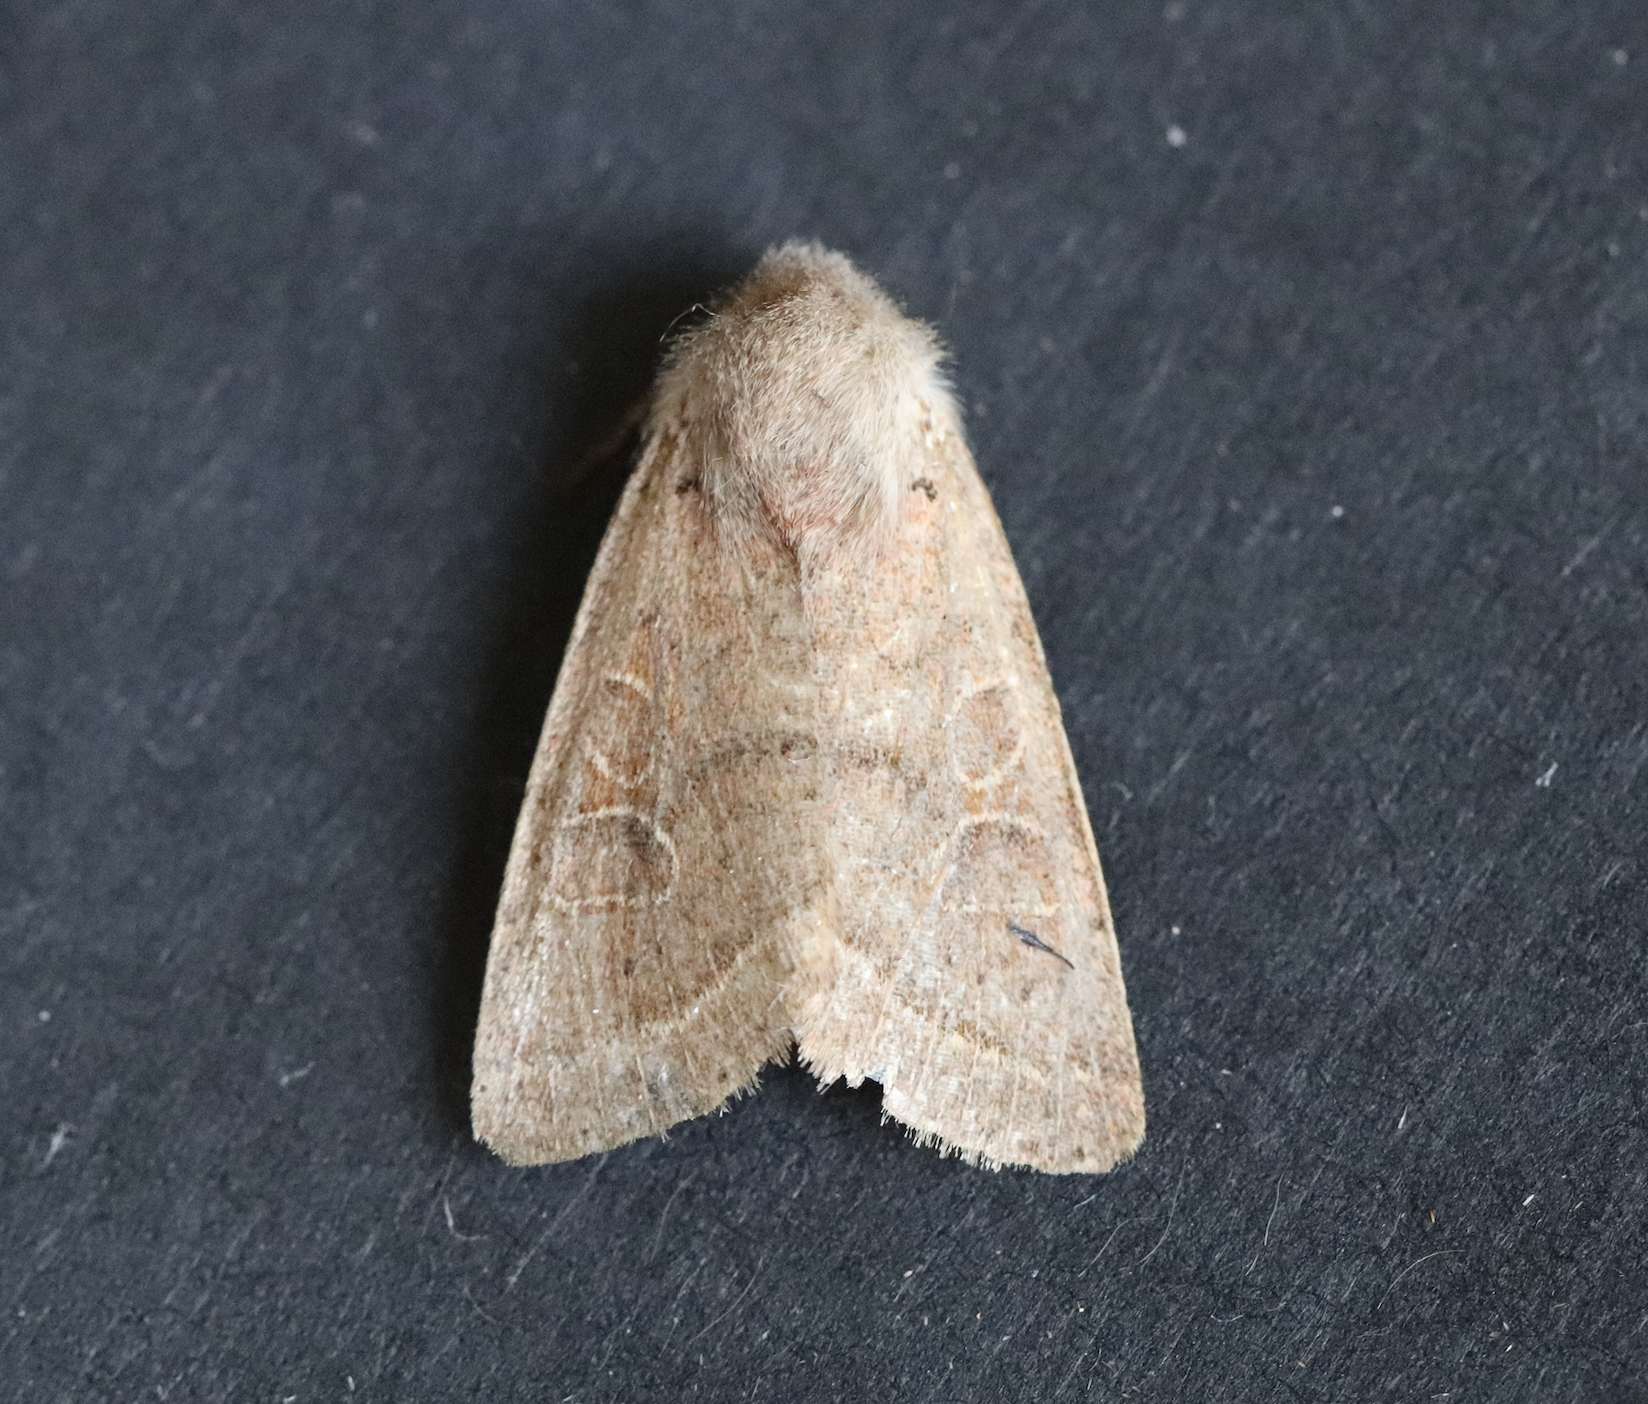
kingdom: Animalia
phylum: Arthropoda
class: Insecta
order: Lepidoptera
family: Noctuidae
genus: Orthosia
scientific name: Orthosia cerasi
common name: Common quaker
